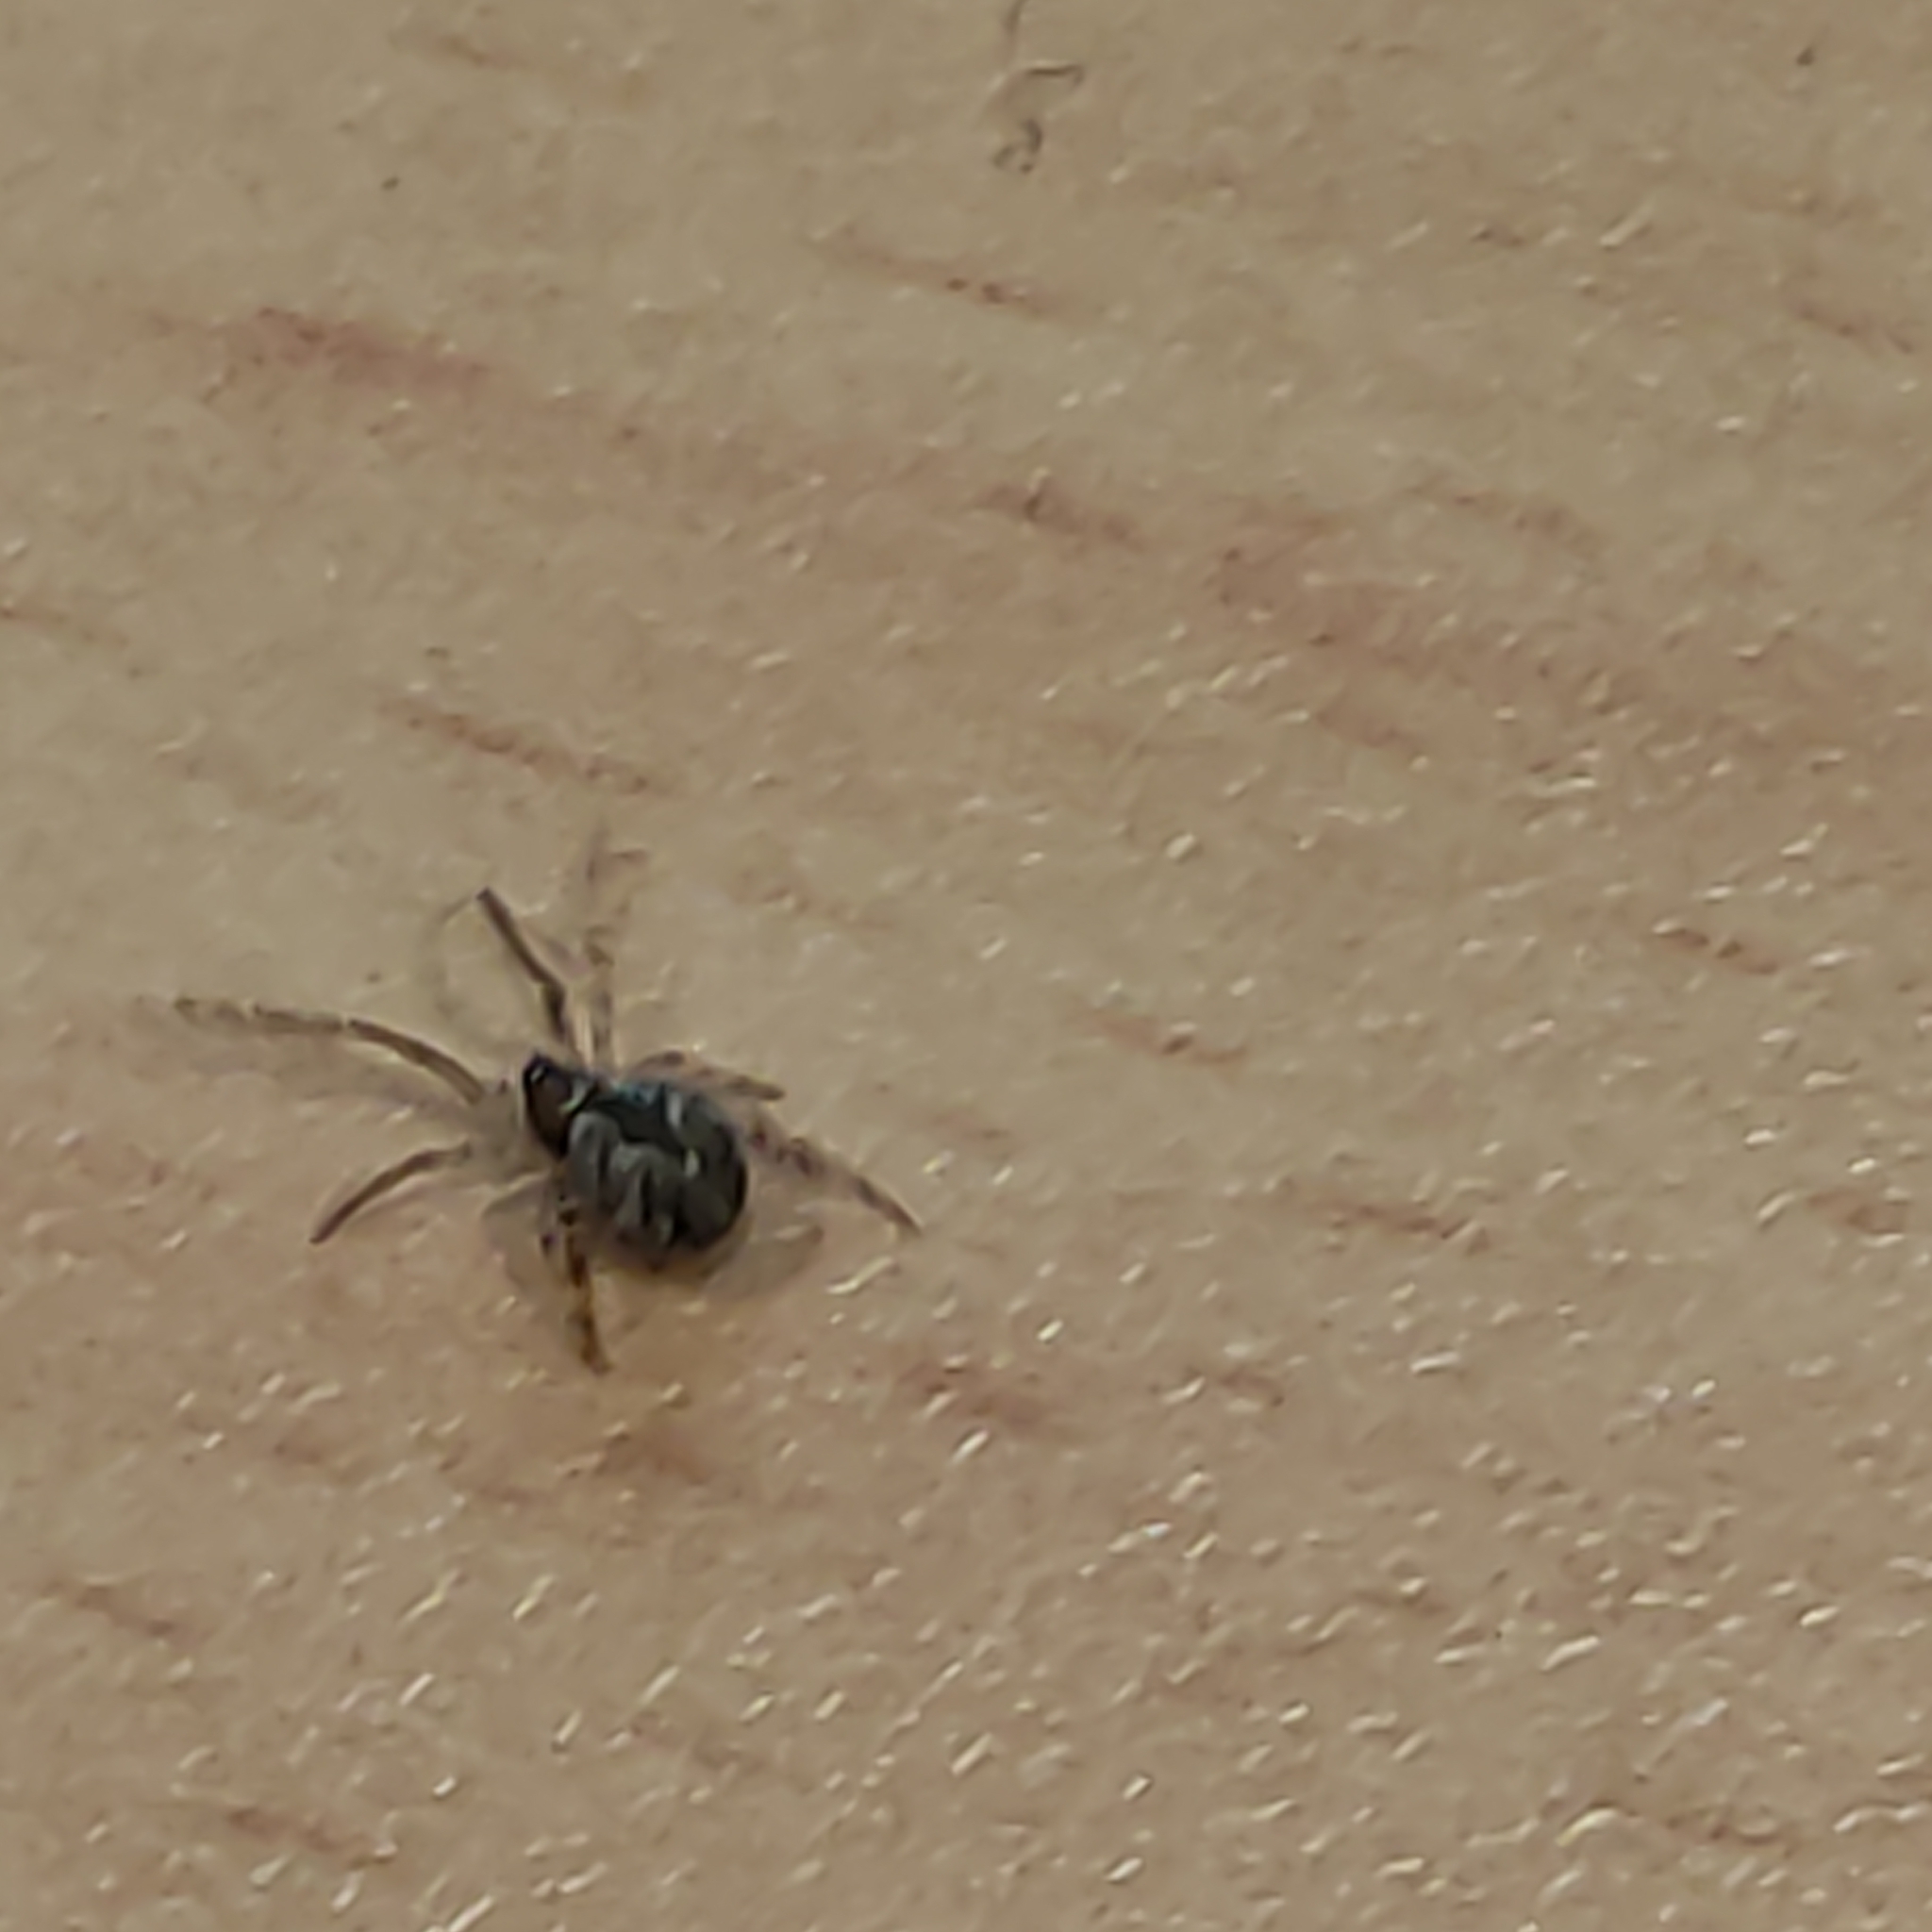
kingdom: Animalia
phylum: Arthropoda
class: Arachnida
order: Araneae
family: Theridiidae
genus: Cryptachaea
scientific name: Cryptachaea veruculata
